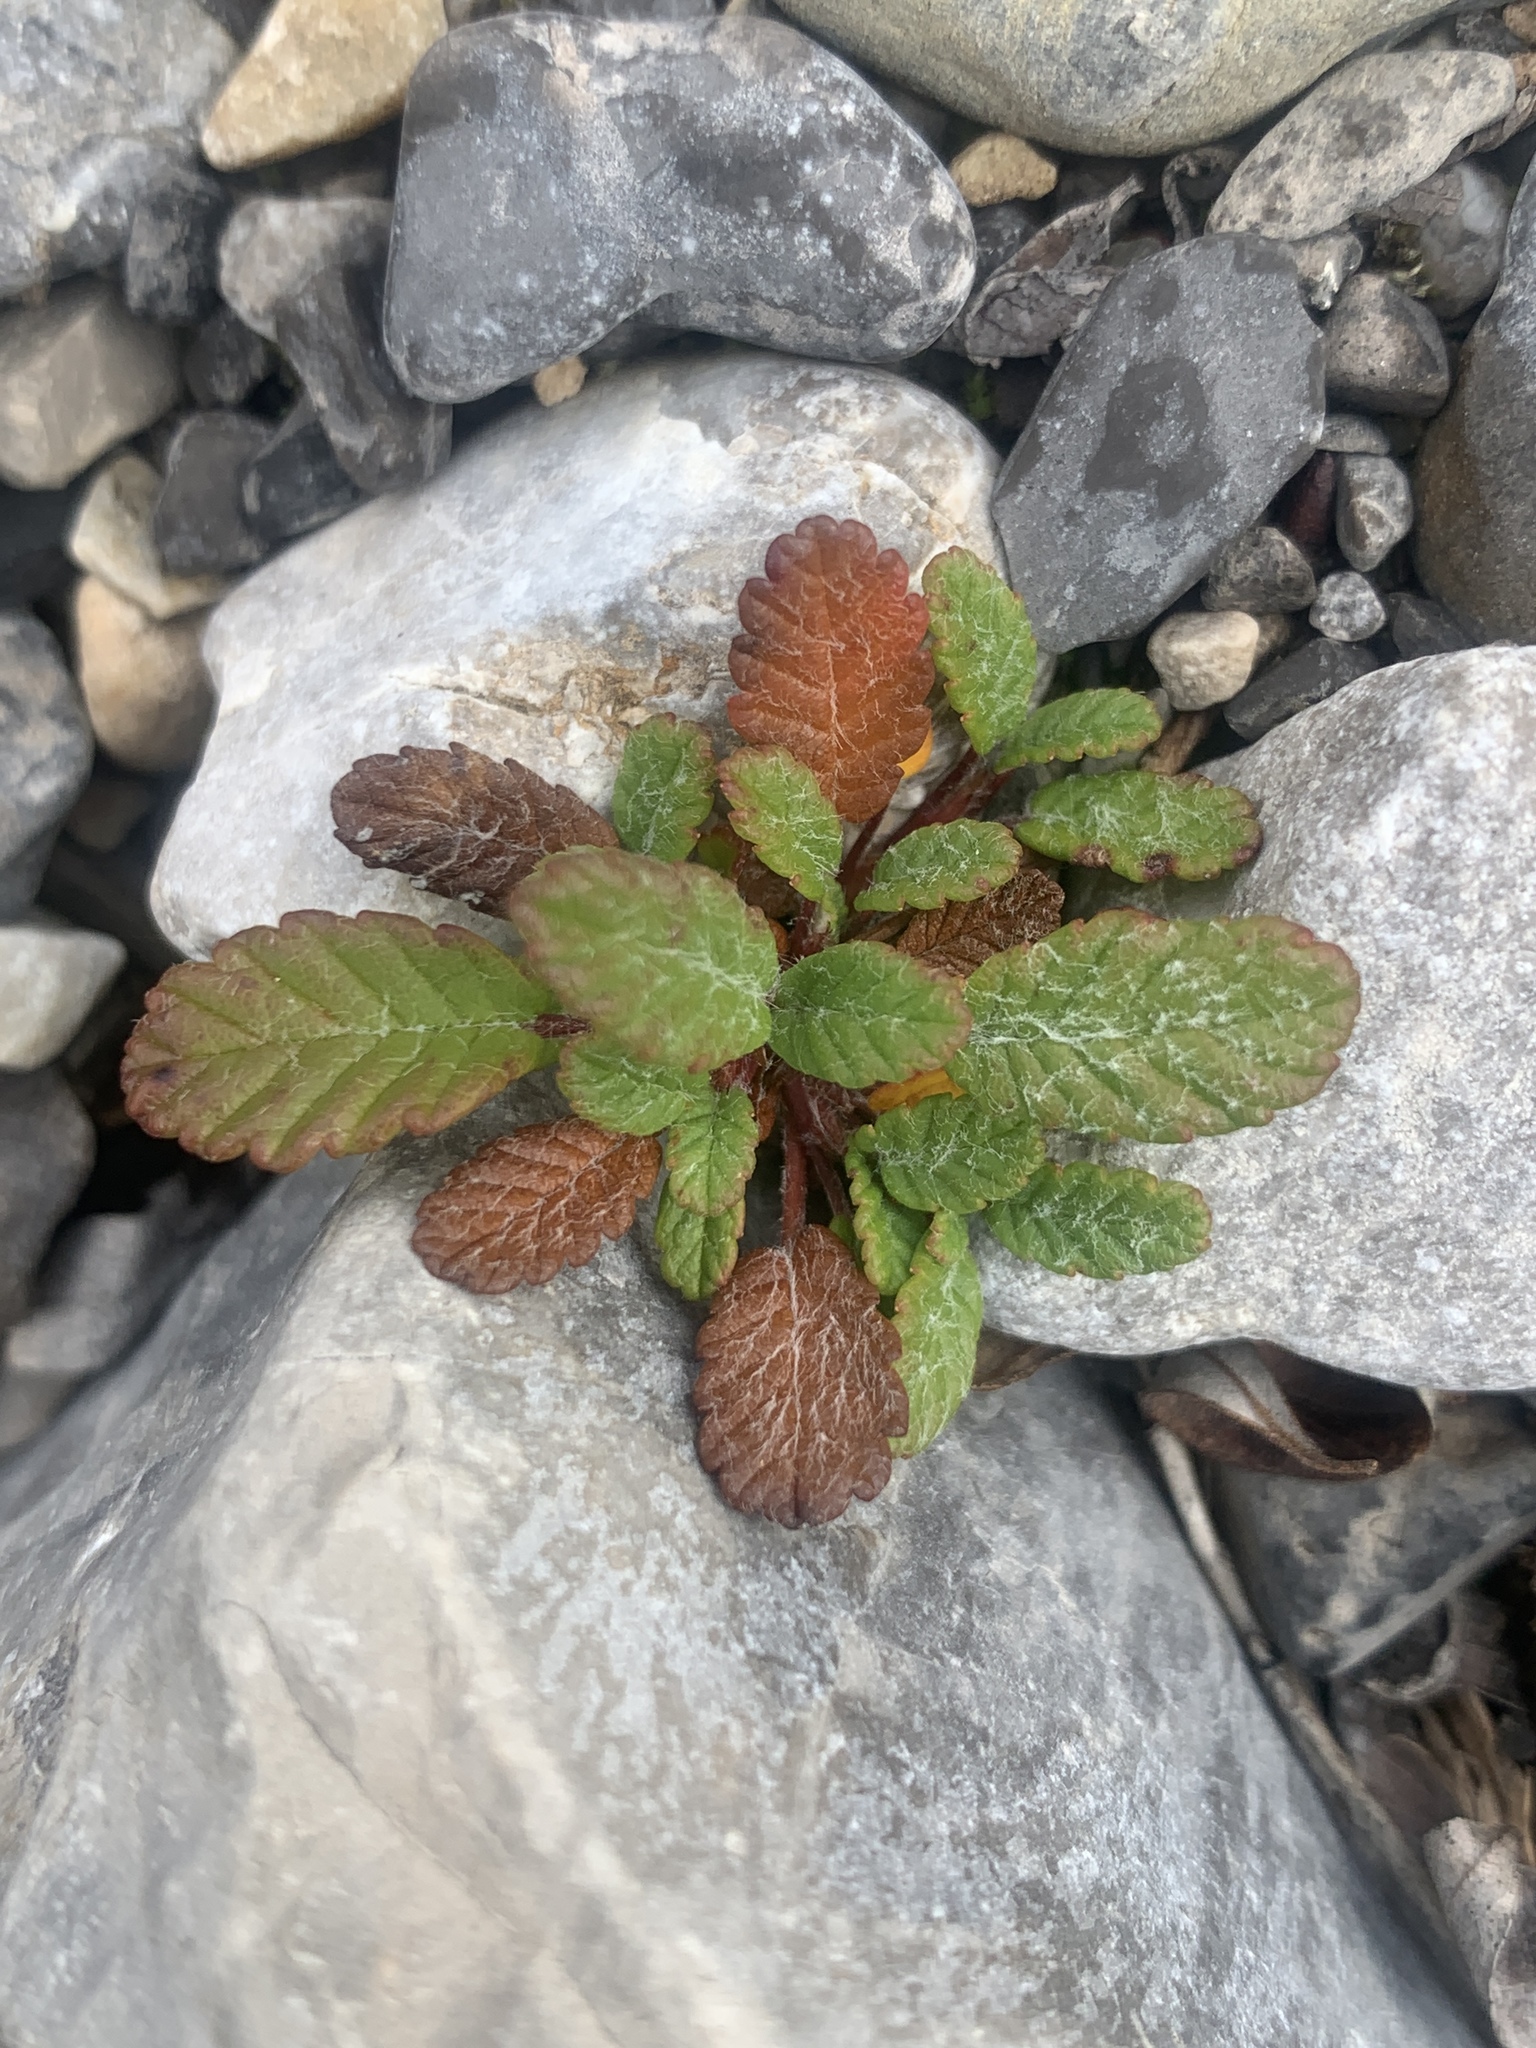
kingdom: Plantae
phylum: Tracheophyta
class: Magnoliopsida
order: Rosales
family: Rosaceae
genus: Dryas
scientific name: Dryas drummondii
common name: Drummond's dryad
